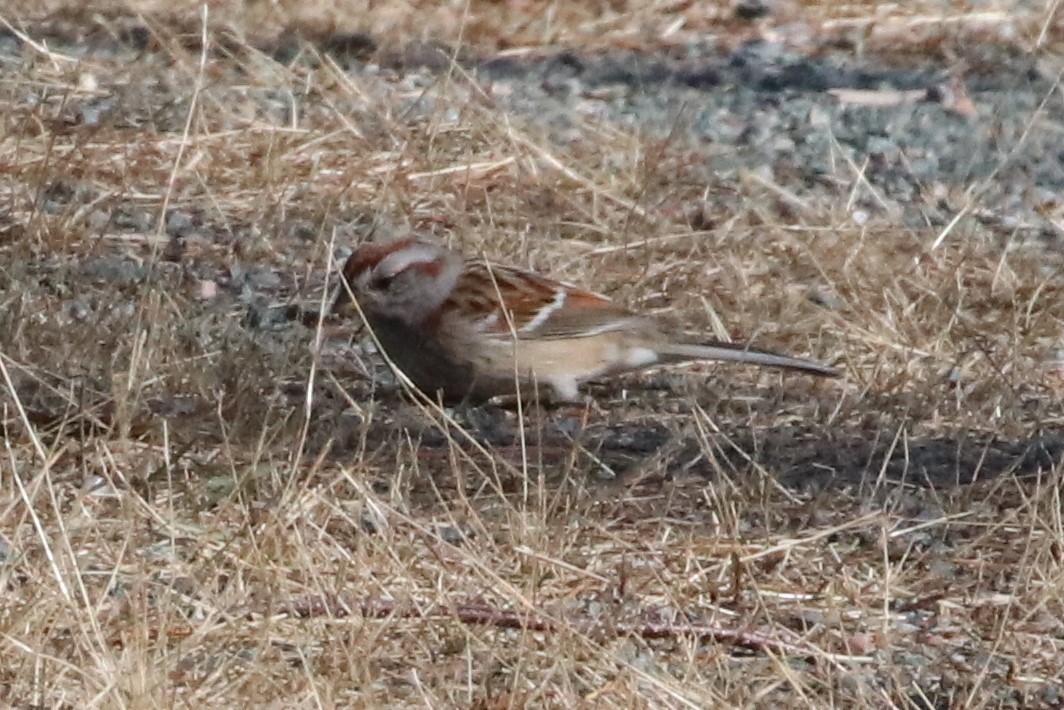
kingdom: Animalia
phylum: Chordata
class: Aves
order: Passeriformes
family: Passerellidae
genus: Spizelloides
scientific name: Spizelloides arborea
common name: American tree sparrow
